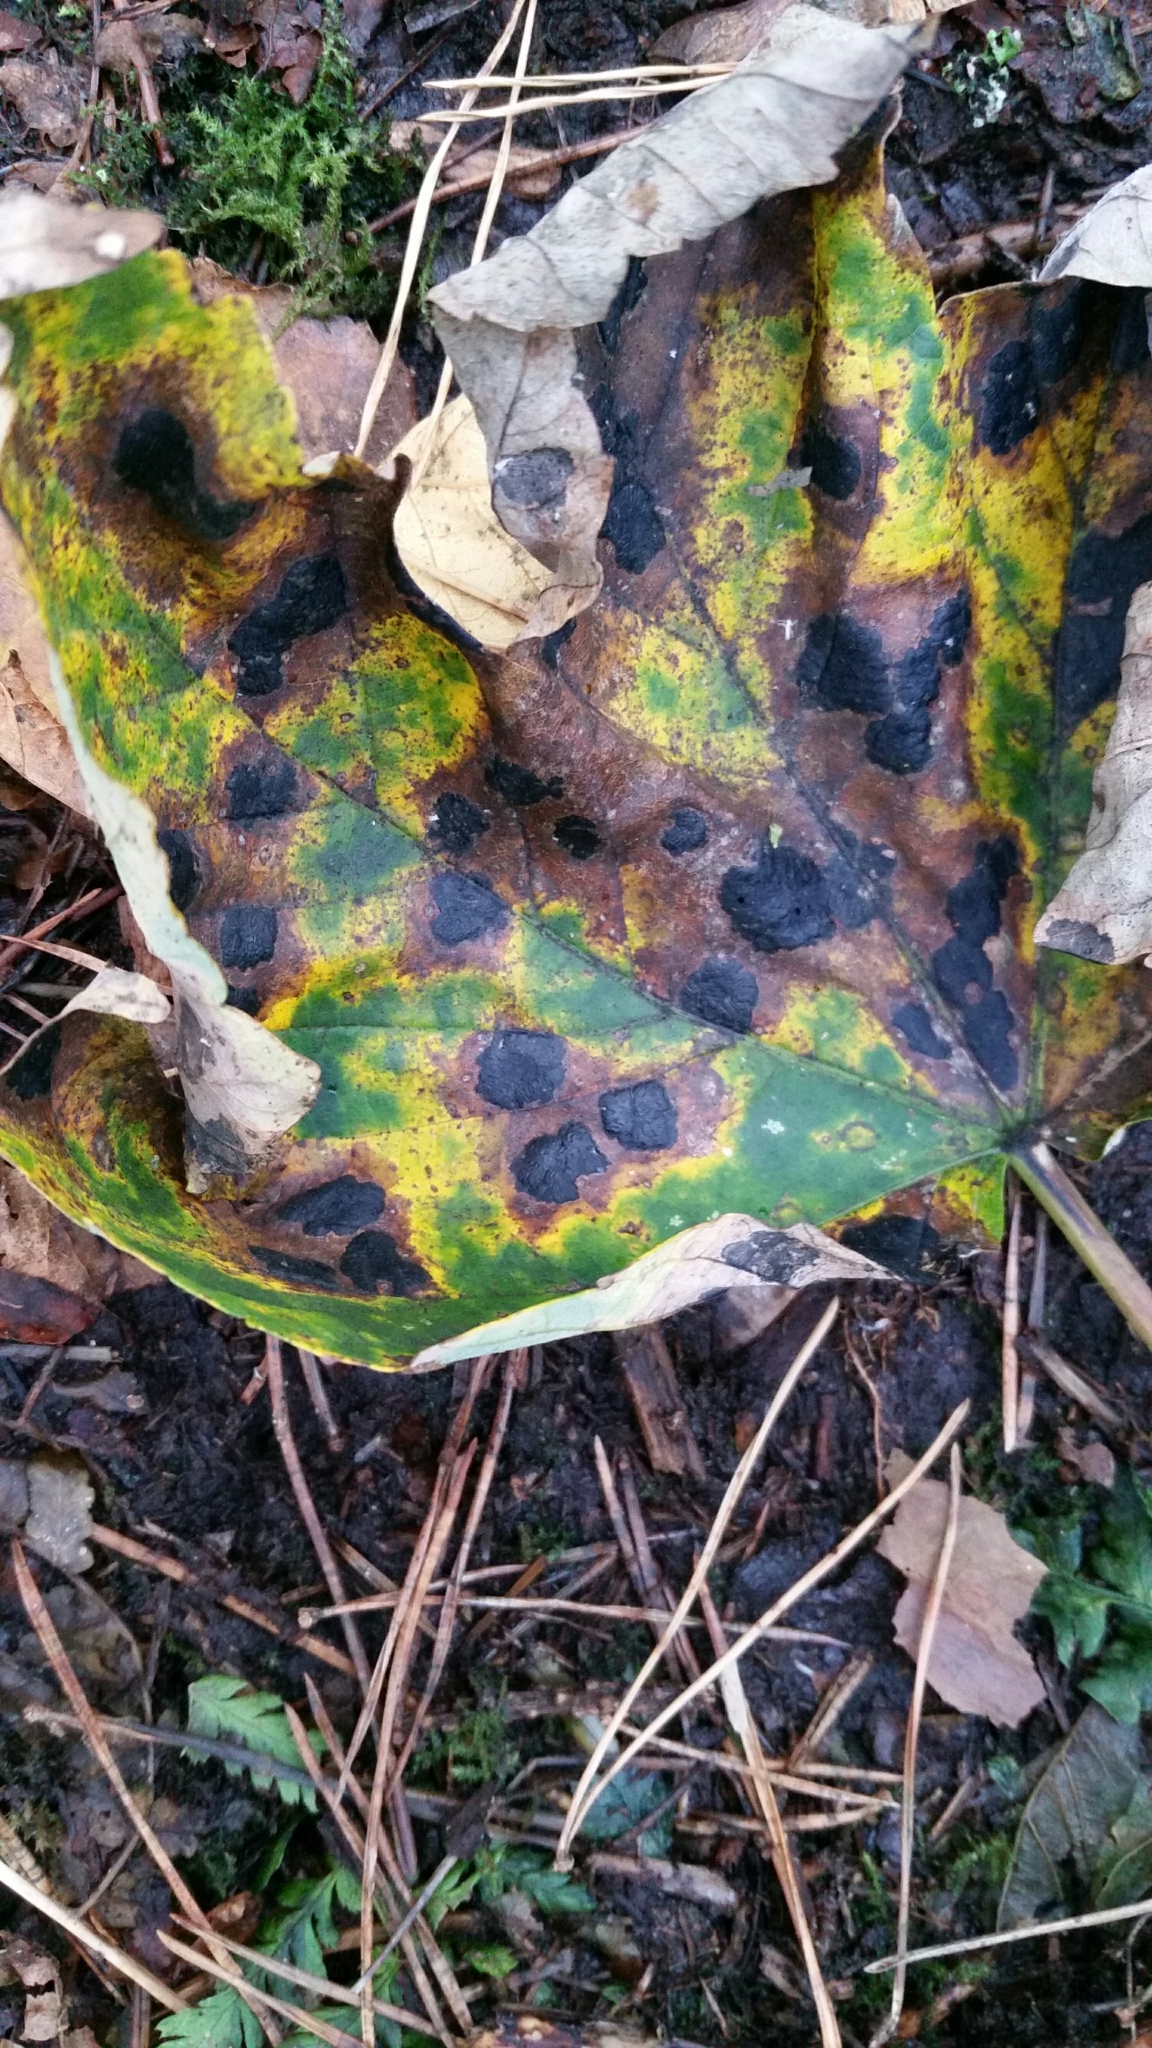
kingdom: Fungi
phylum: Ascomycota
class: Leotiomycetes
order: Rhytismatales
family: Rhytismataceae
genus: Rhytisma
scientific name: Rhytisma acerinum
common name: European tar spot
